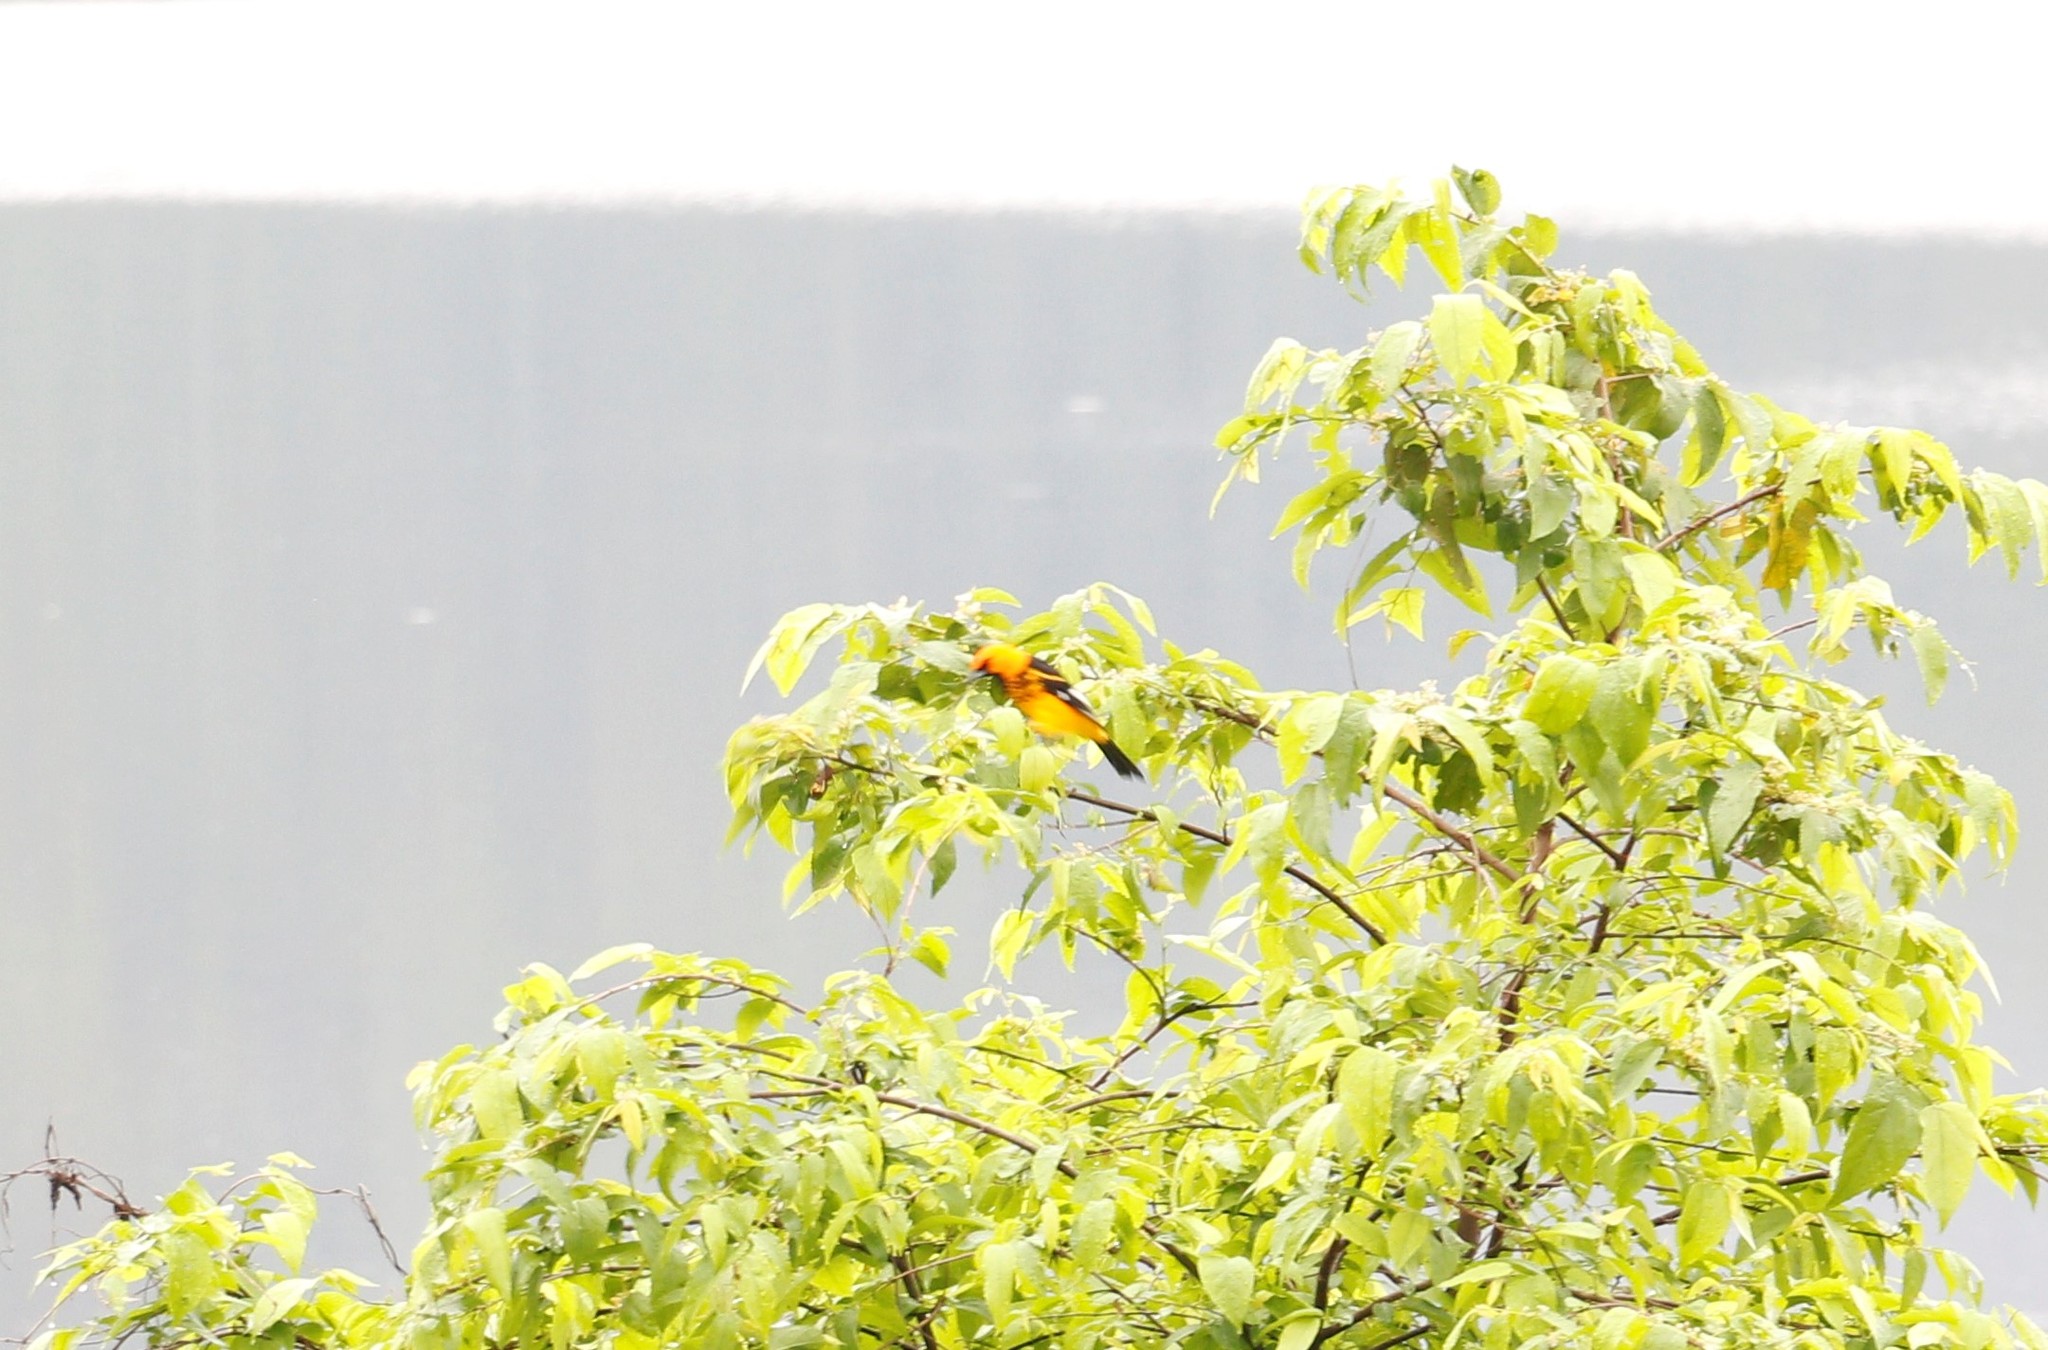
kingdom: Animalia
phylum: Chordata
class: Aves
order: Passeriformes
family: Icteridae
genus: Icterus
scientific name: Icterus pectoralis
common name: Spot-breasted oriole
